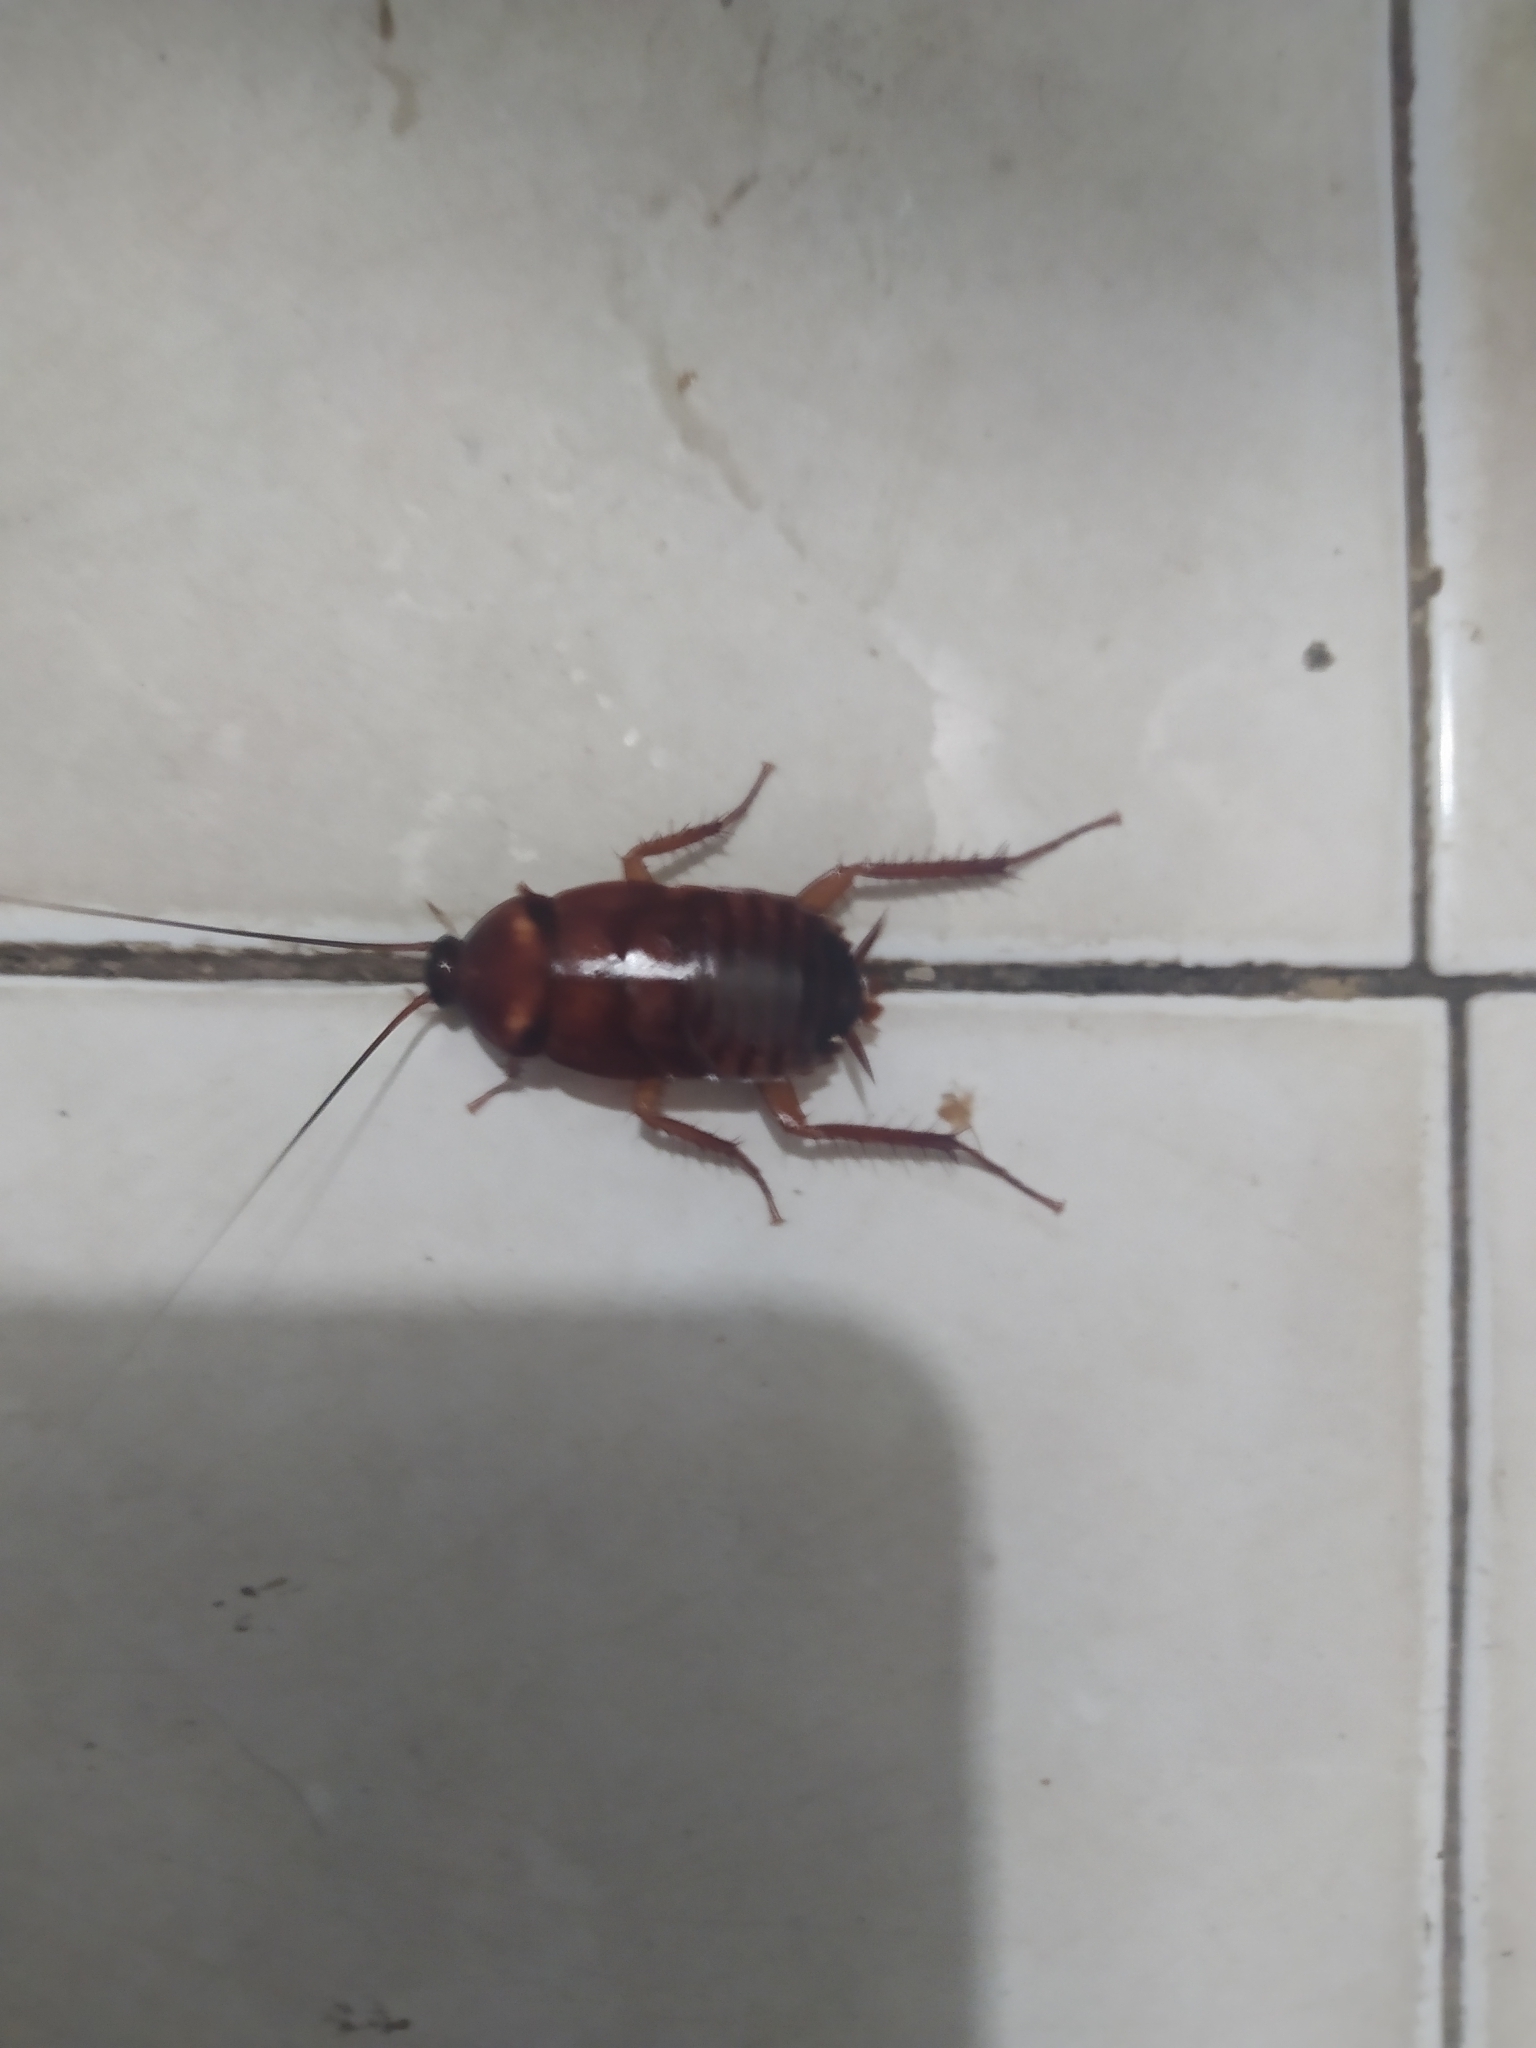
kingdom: Animalia
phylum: Arthropoda
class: Insecta
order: Blattodea
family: Blattidae
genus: Periplaneta
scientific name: Periplaneta americana
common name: American cockroach
